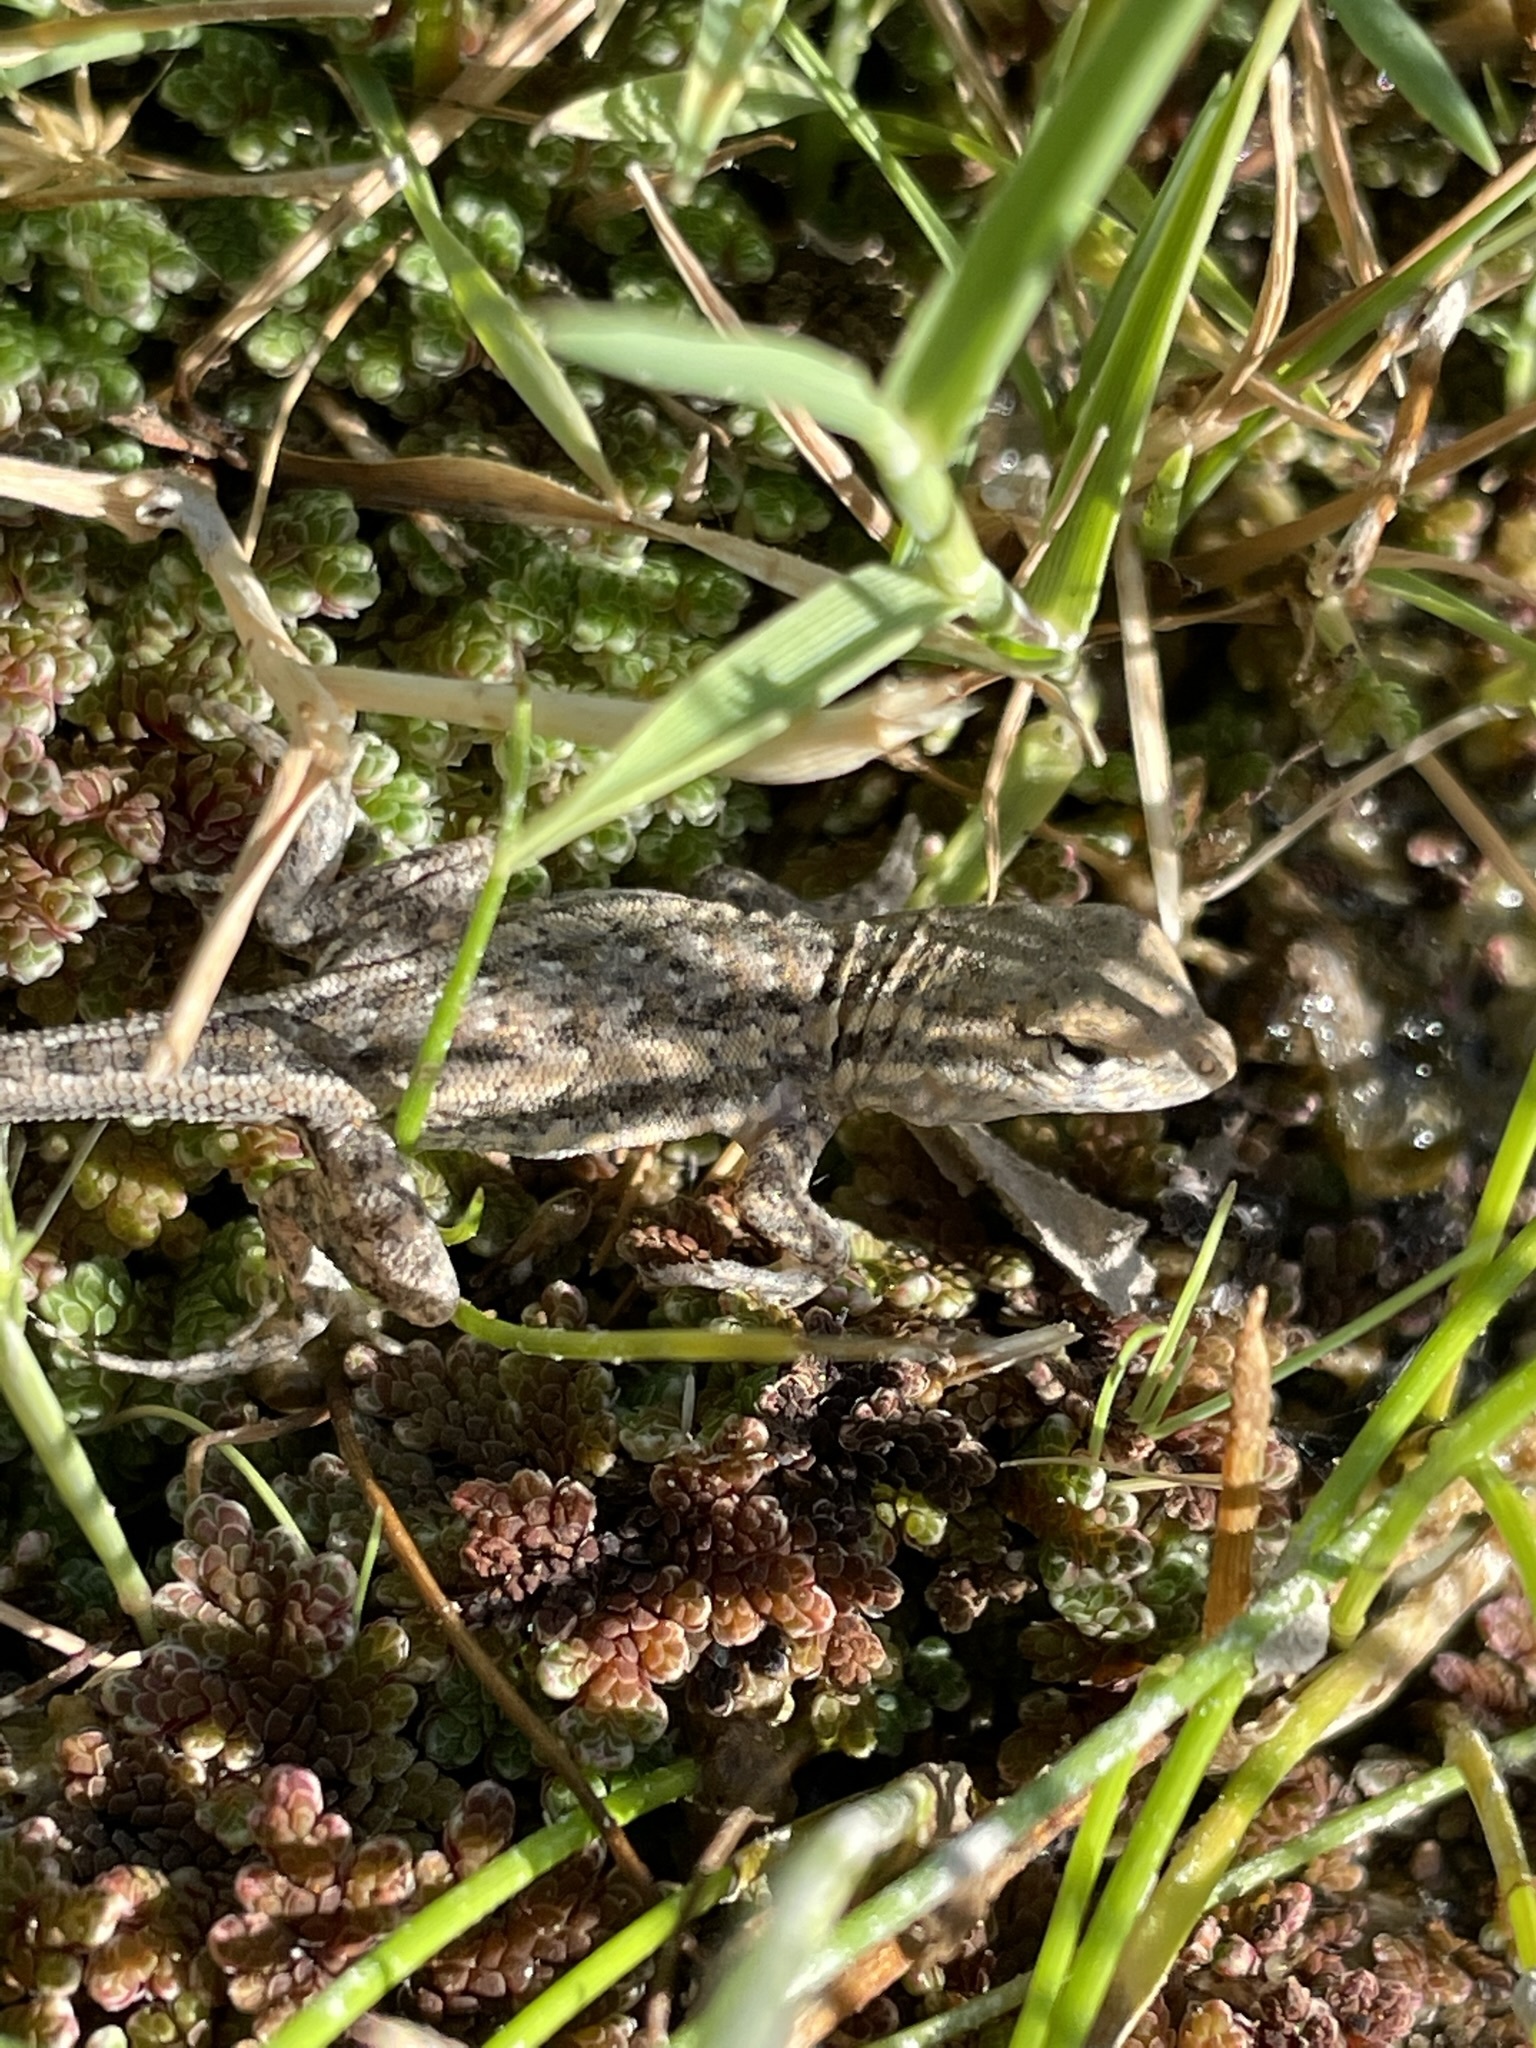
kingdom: Animalia
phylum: Chordata
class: Squamata
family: Phrynosomatidae
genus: Uta
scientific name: Uta stansburiana
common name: Side-blotched lizard
